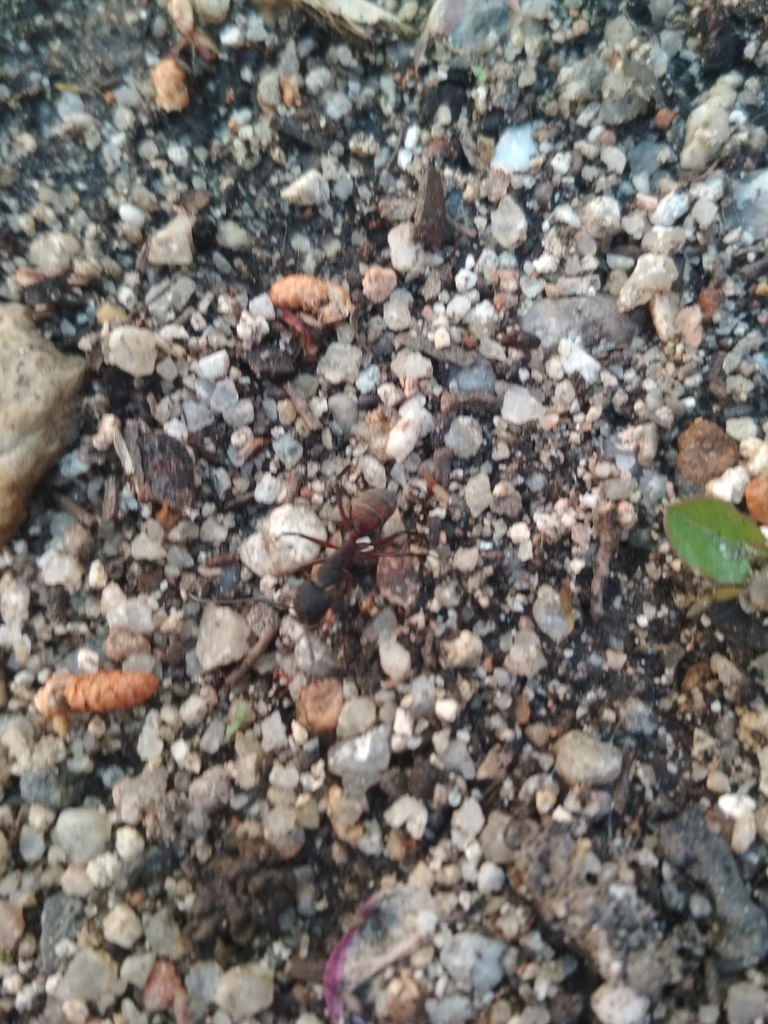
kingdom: Animalia
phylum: Arthropoda
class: Insecta
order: Hymenoptera
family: Formicidae
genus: Camponotus
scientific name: Camponotus cruentatus
